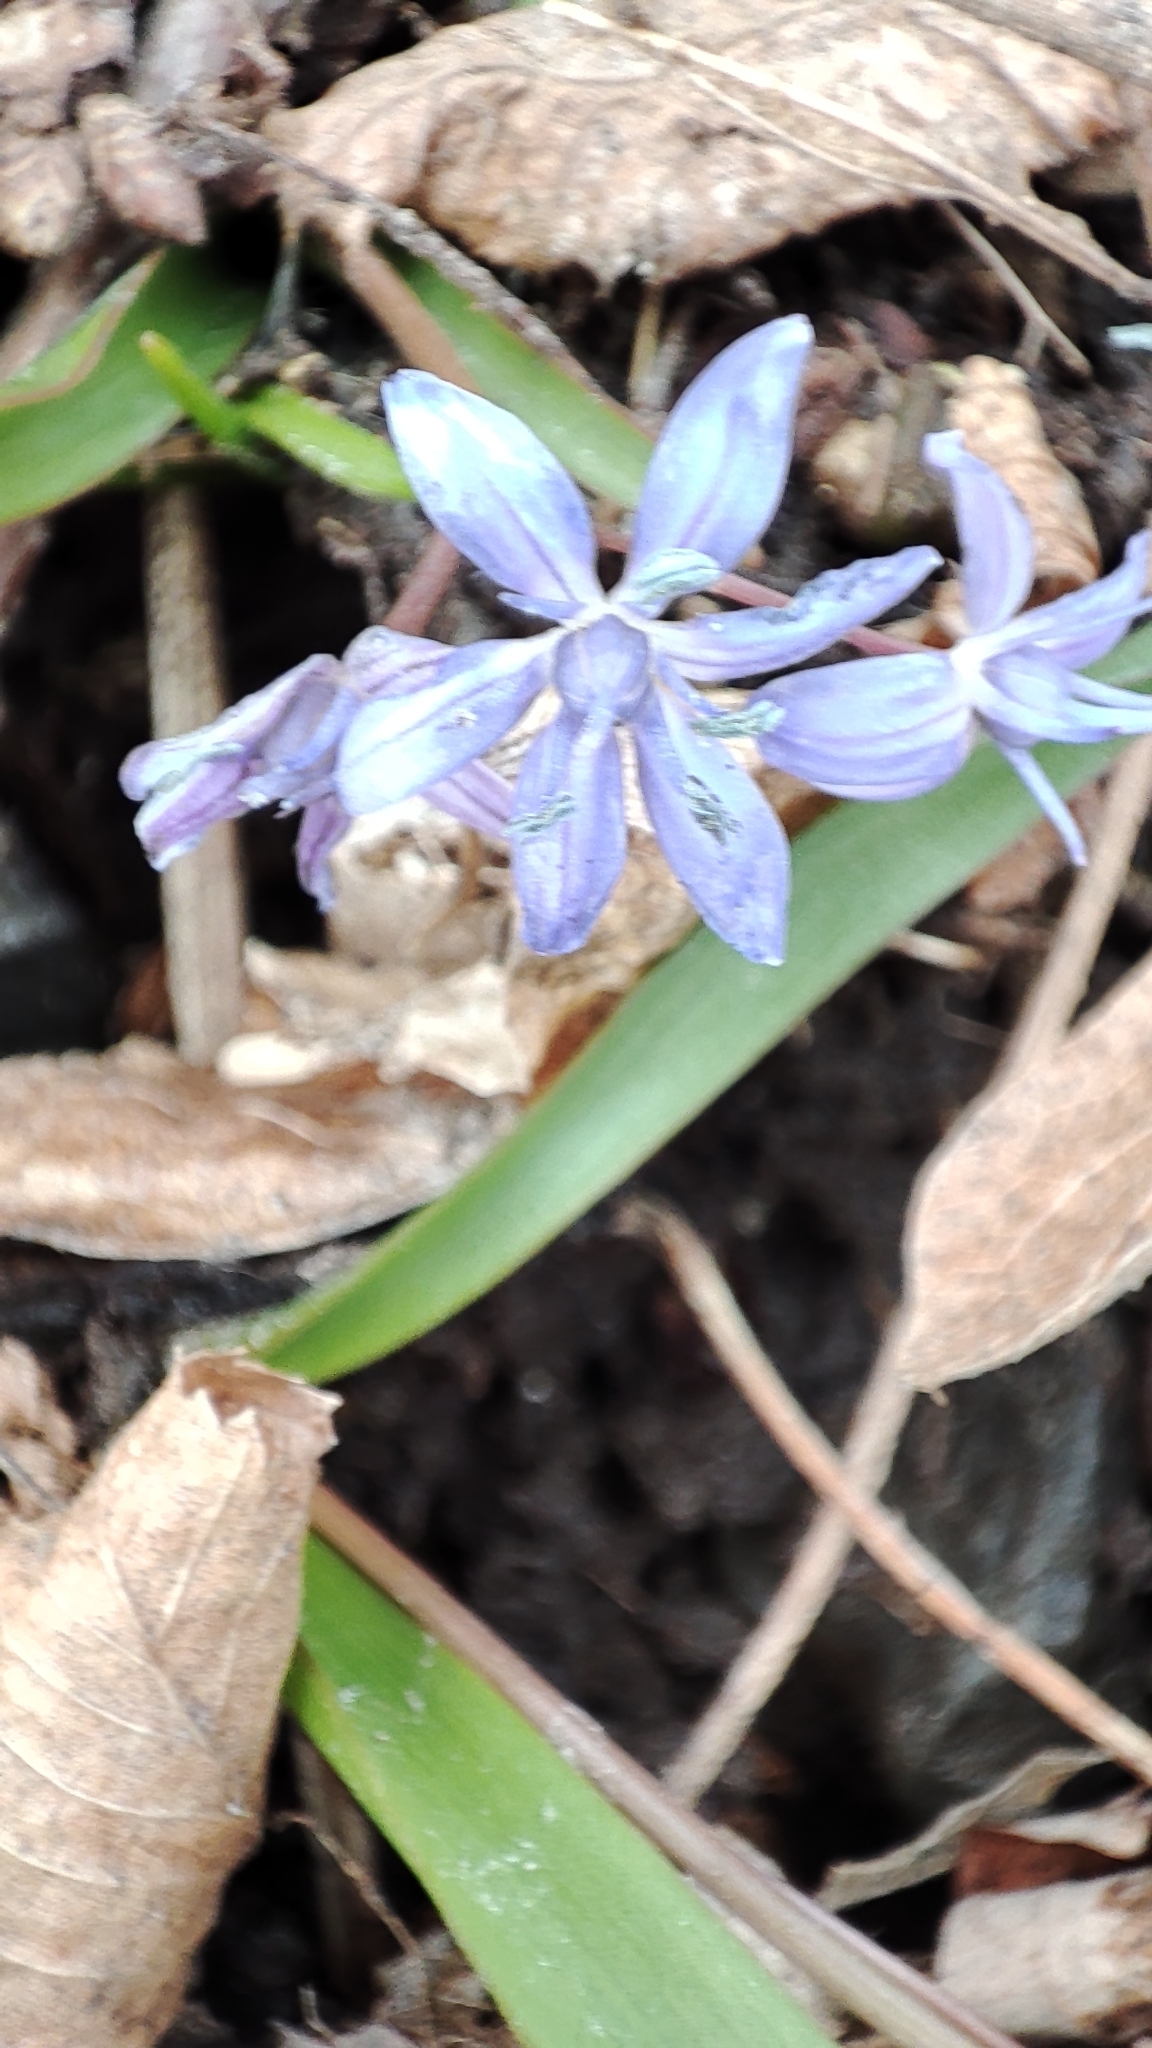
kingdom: Plantae
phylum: Tracheophyta
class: Liliopsida
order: Asparagales
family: Asparagaceae
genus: Scilla
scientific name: Scilla bifolia
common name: Alpine squill
